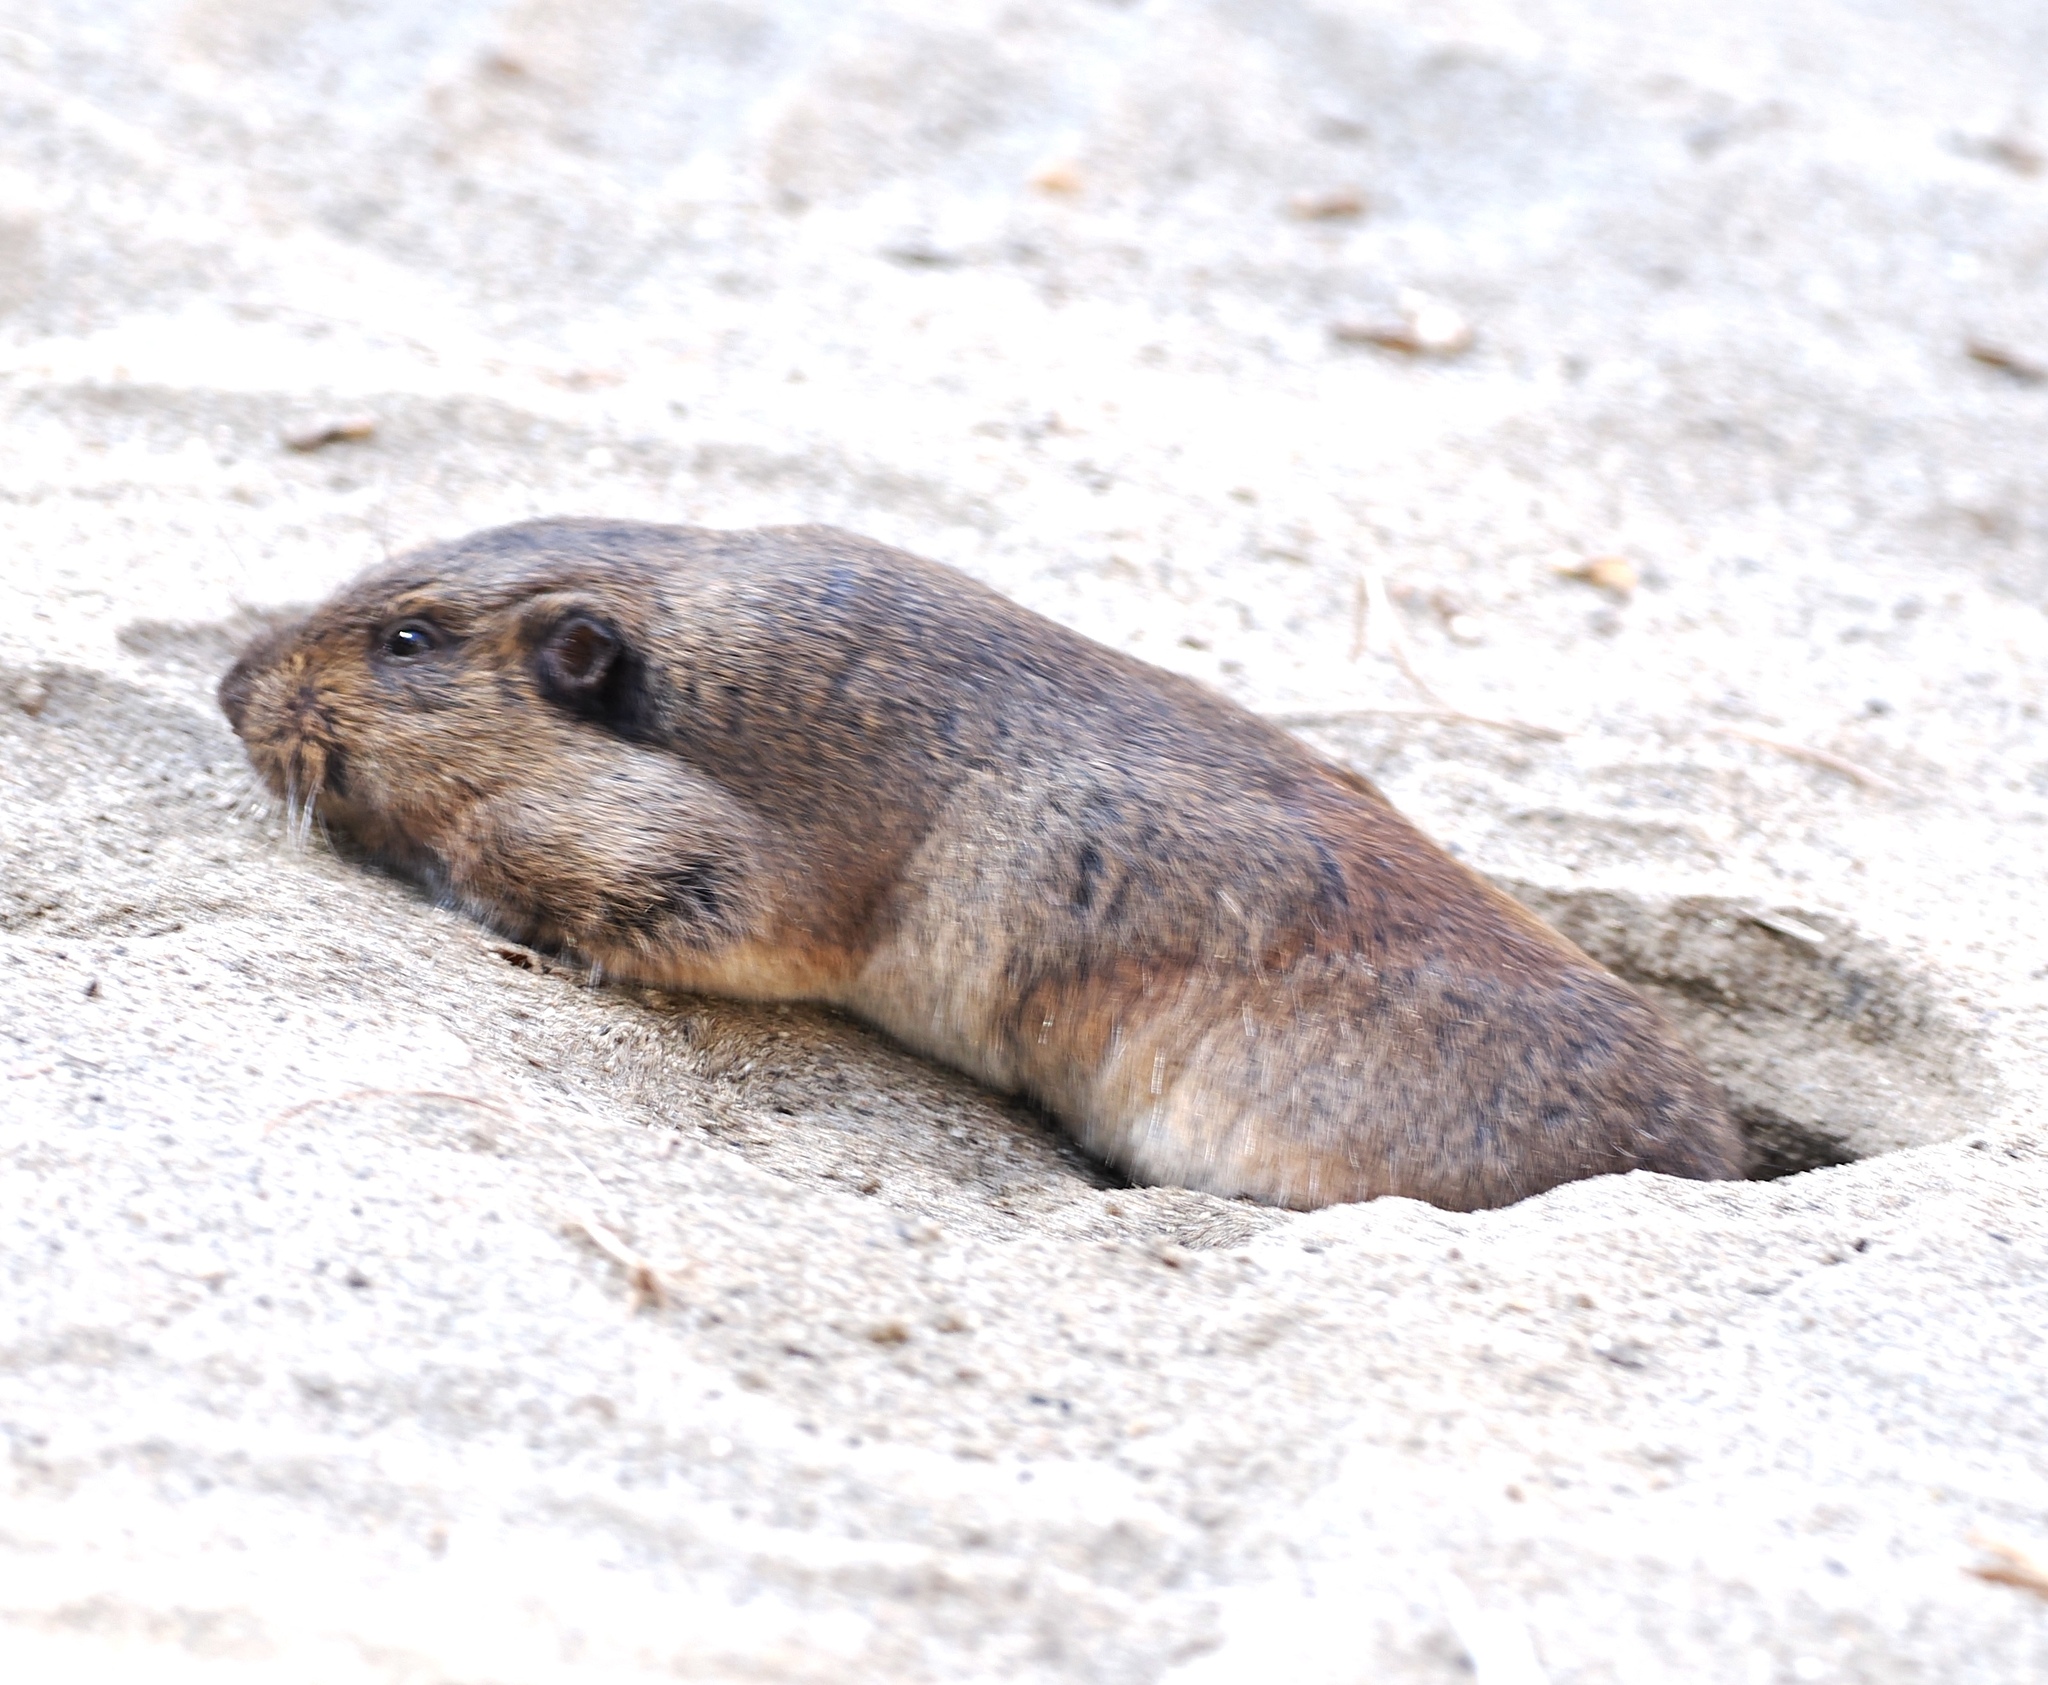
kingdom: Animalia
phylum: Chordata
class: Mammalia
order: Rodentia
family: Geomyidae
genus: Thomomys
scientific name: Thomomys bottae
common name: Botta's pocket gopher
